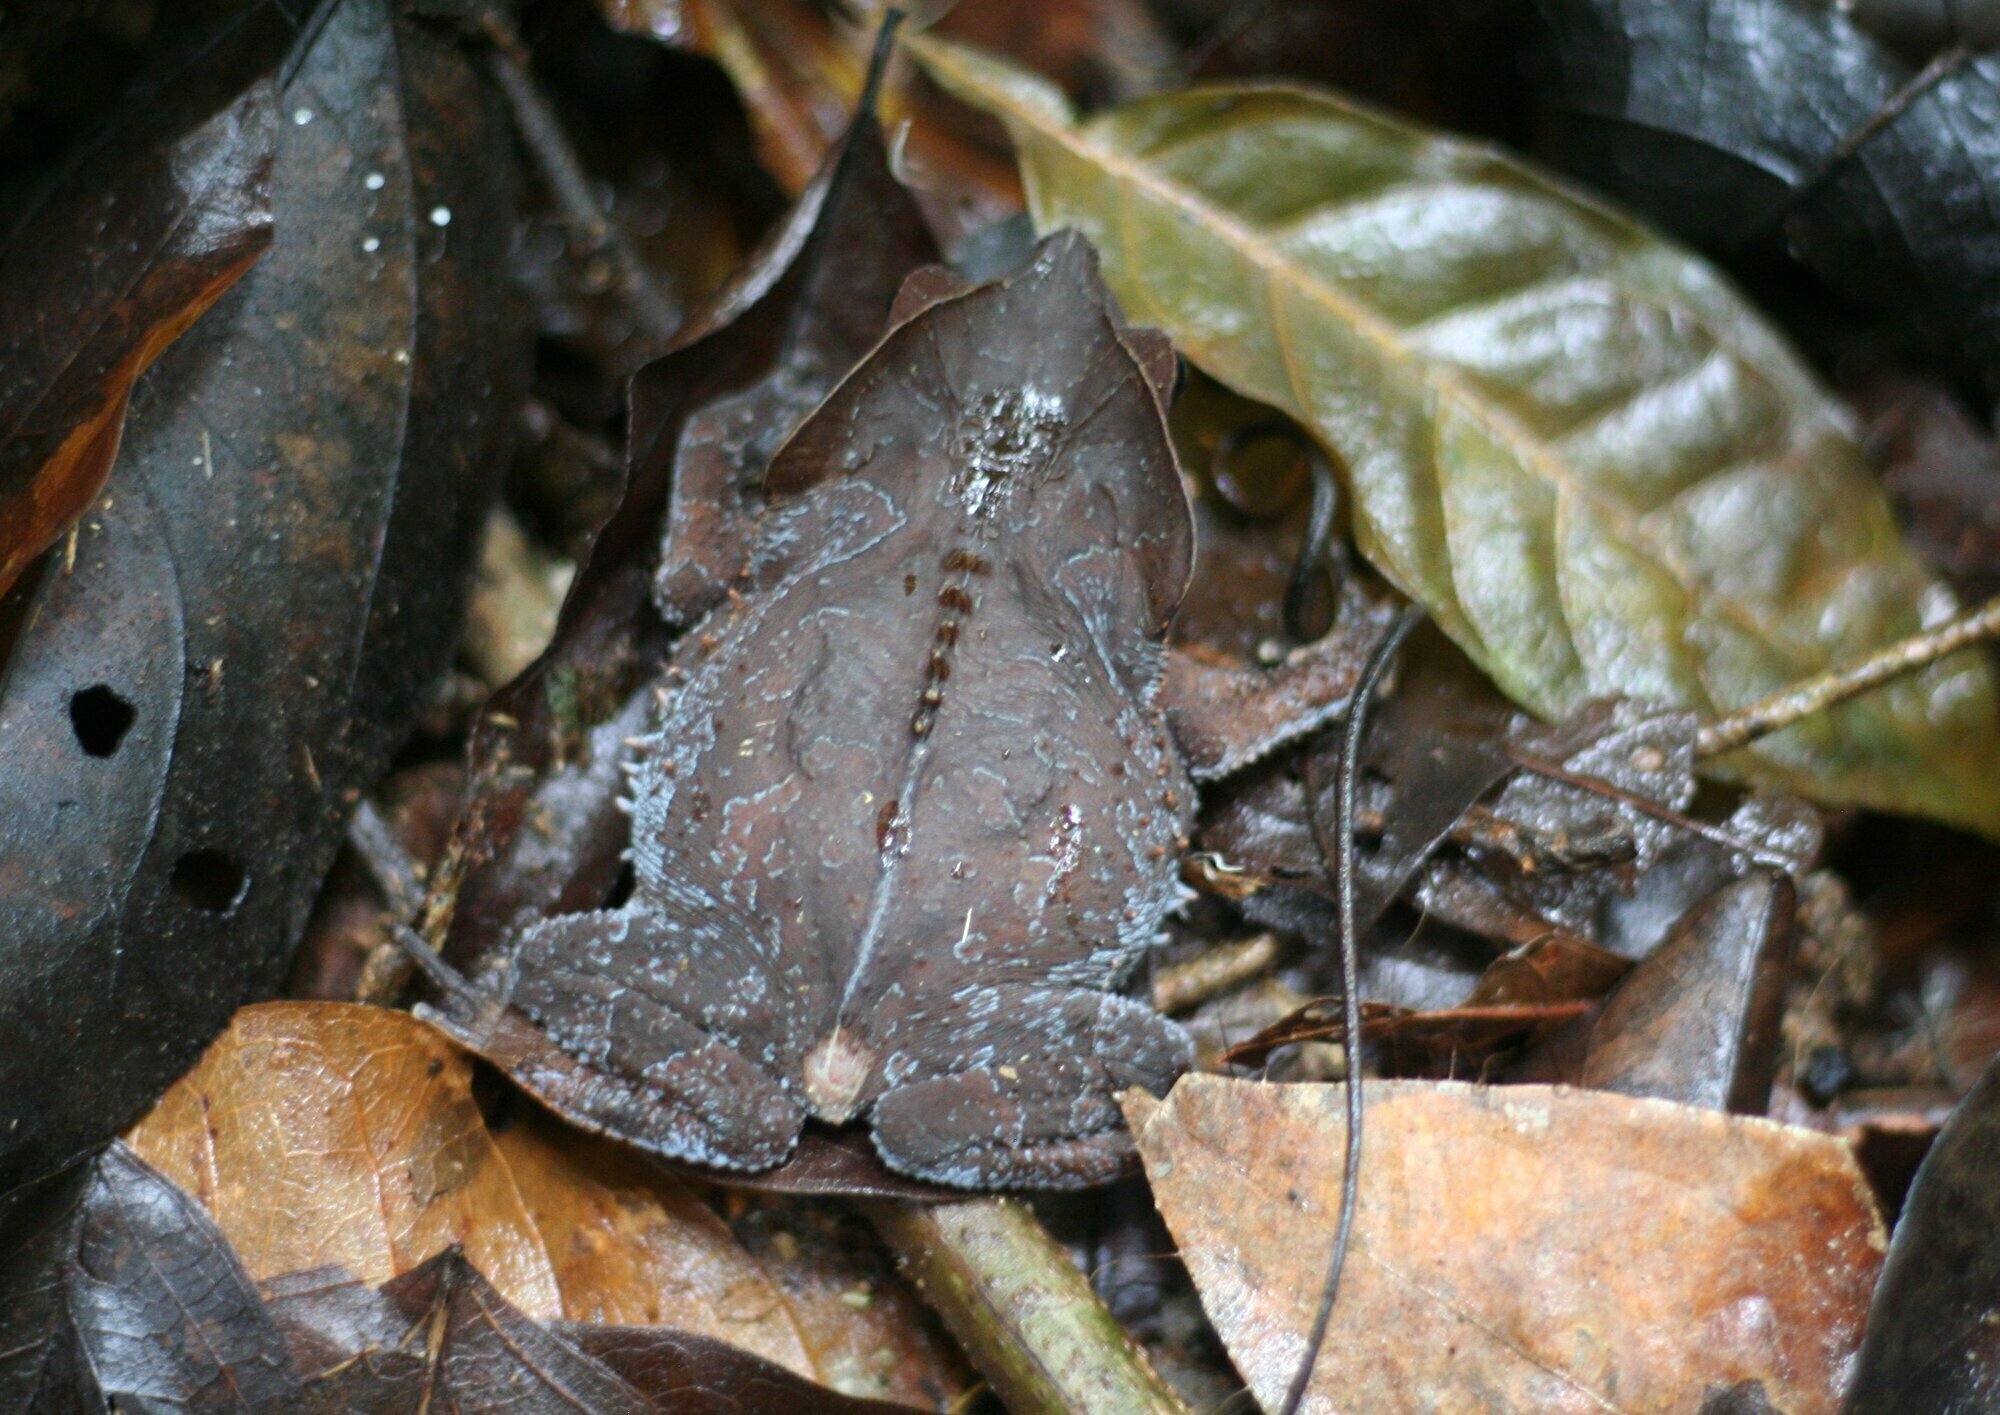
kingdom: Animalia
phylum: Chordata
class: Amphibia
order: Anura
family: Bufonidae
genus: Rhinella
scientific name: Rhinella margaritifera
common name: Mitred toad
